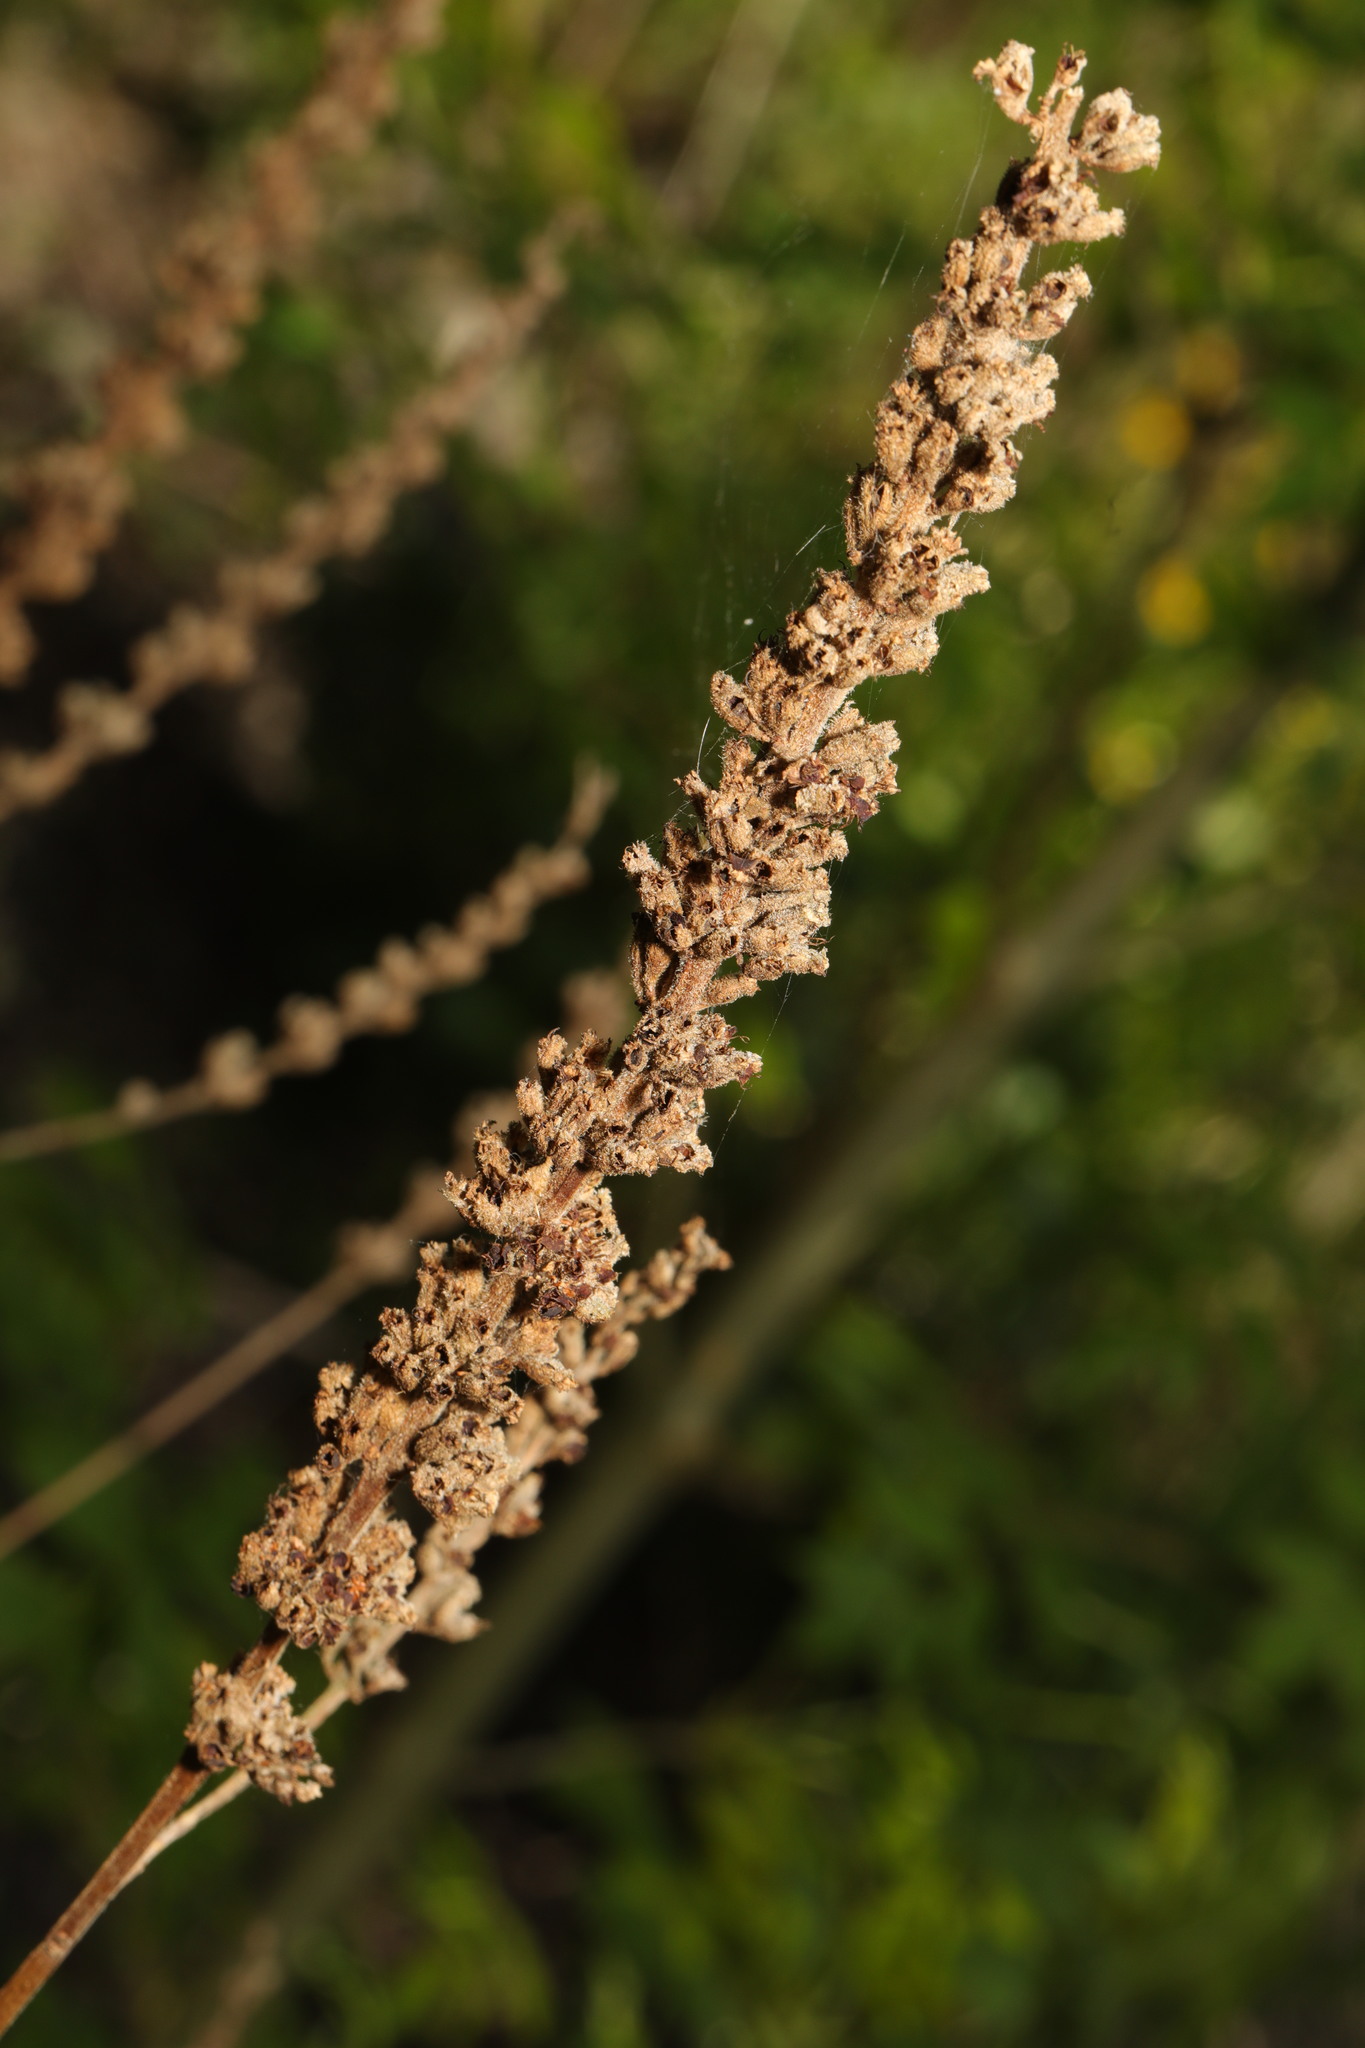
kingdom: Plantae
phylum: Tracheophyta
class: Magnoliopsida
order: Myrtales
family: Lythraceae
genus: Lythrum
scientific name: Lythrum salicaria
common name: Purple loosestrife
